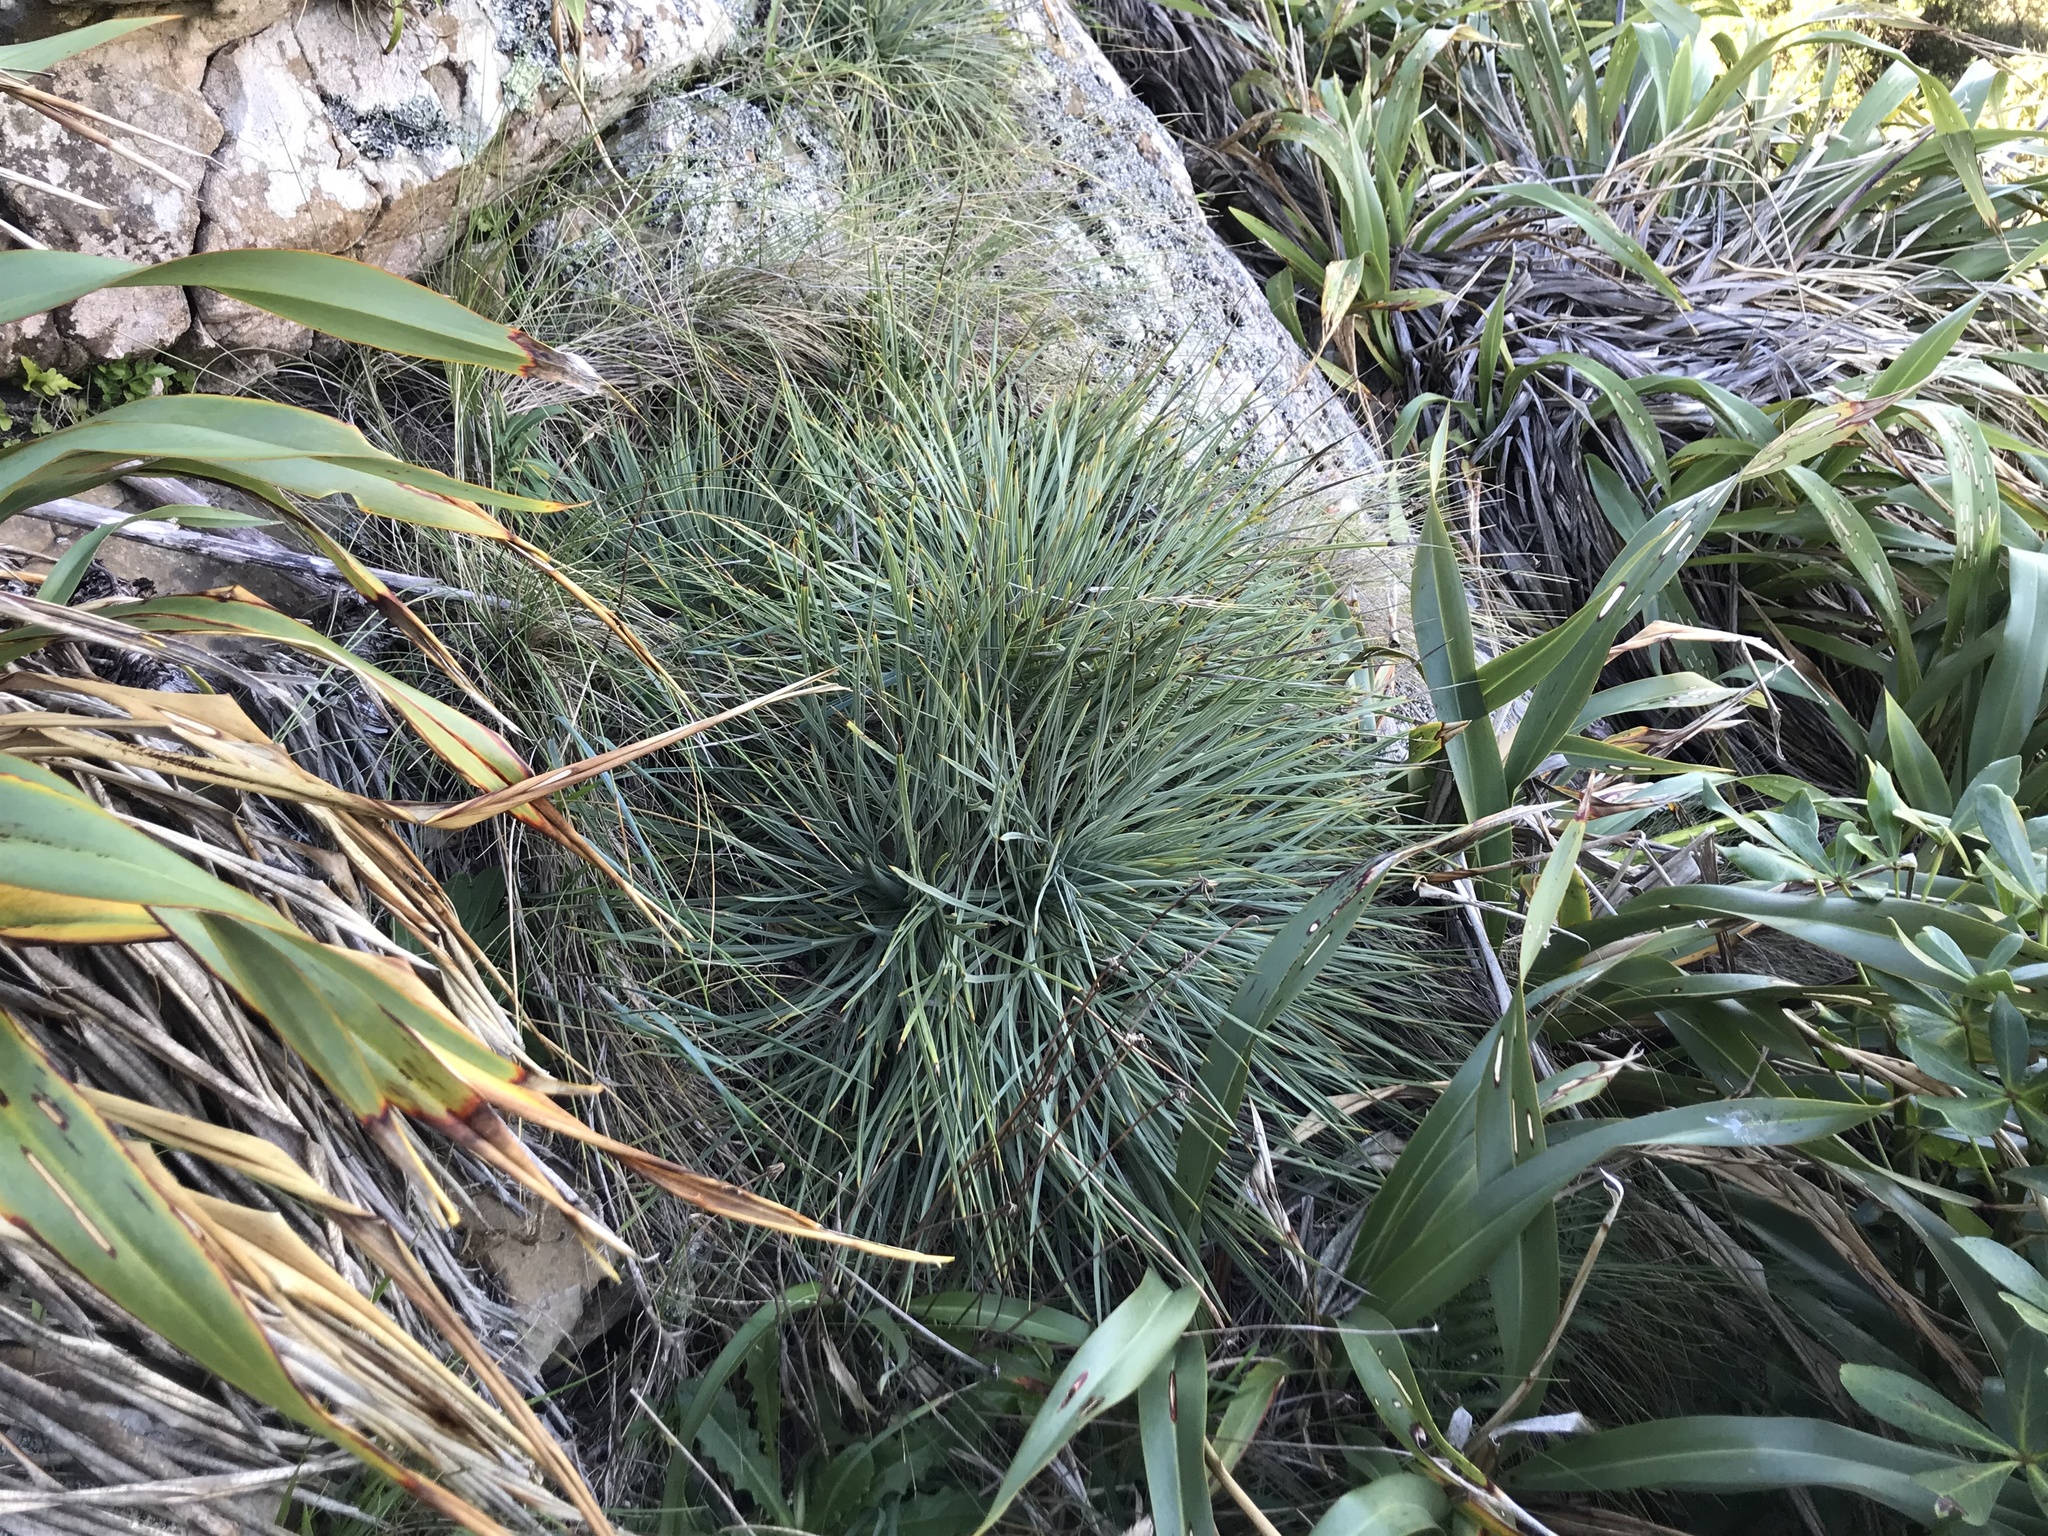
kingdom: Plantae
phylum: Tracheophyta
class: Magnoliopsida
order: Apiales
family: Apiaceae
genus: Aciphylla
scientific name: Aciphylla squarrosa
